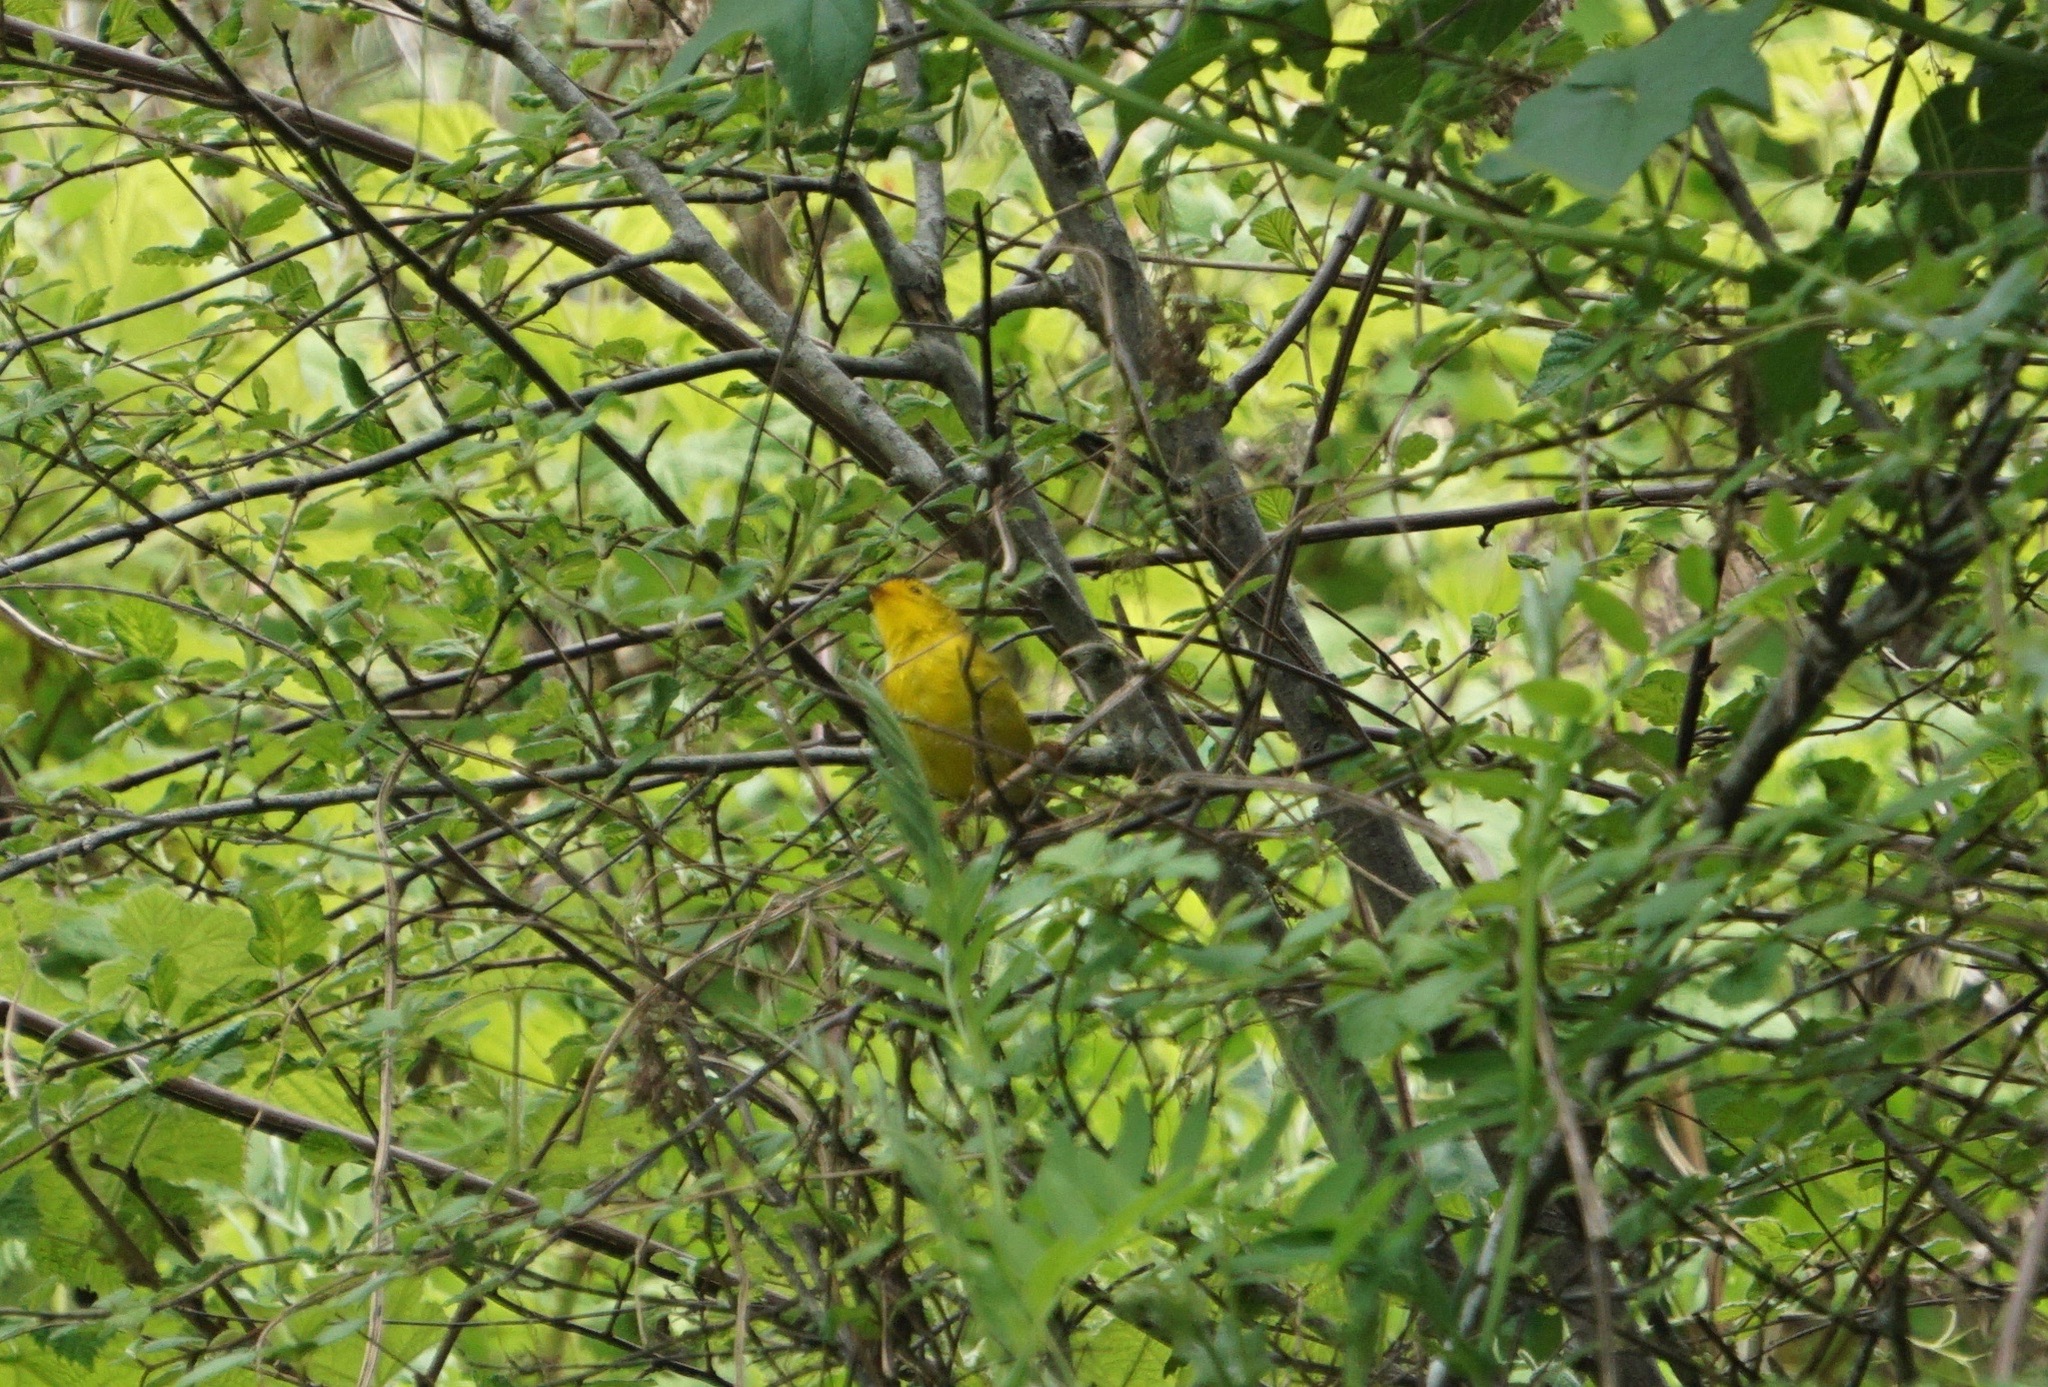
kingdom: Animalia
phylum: Chordata
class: Aves
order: Passeriformes
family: Parulidae
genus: Cardellina
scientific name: Cardellina pusilla
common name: Wilson's warbler
